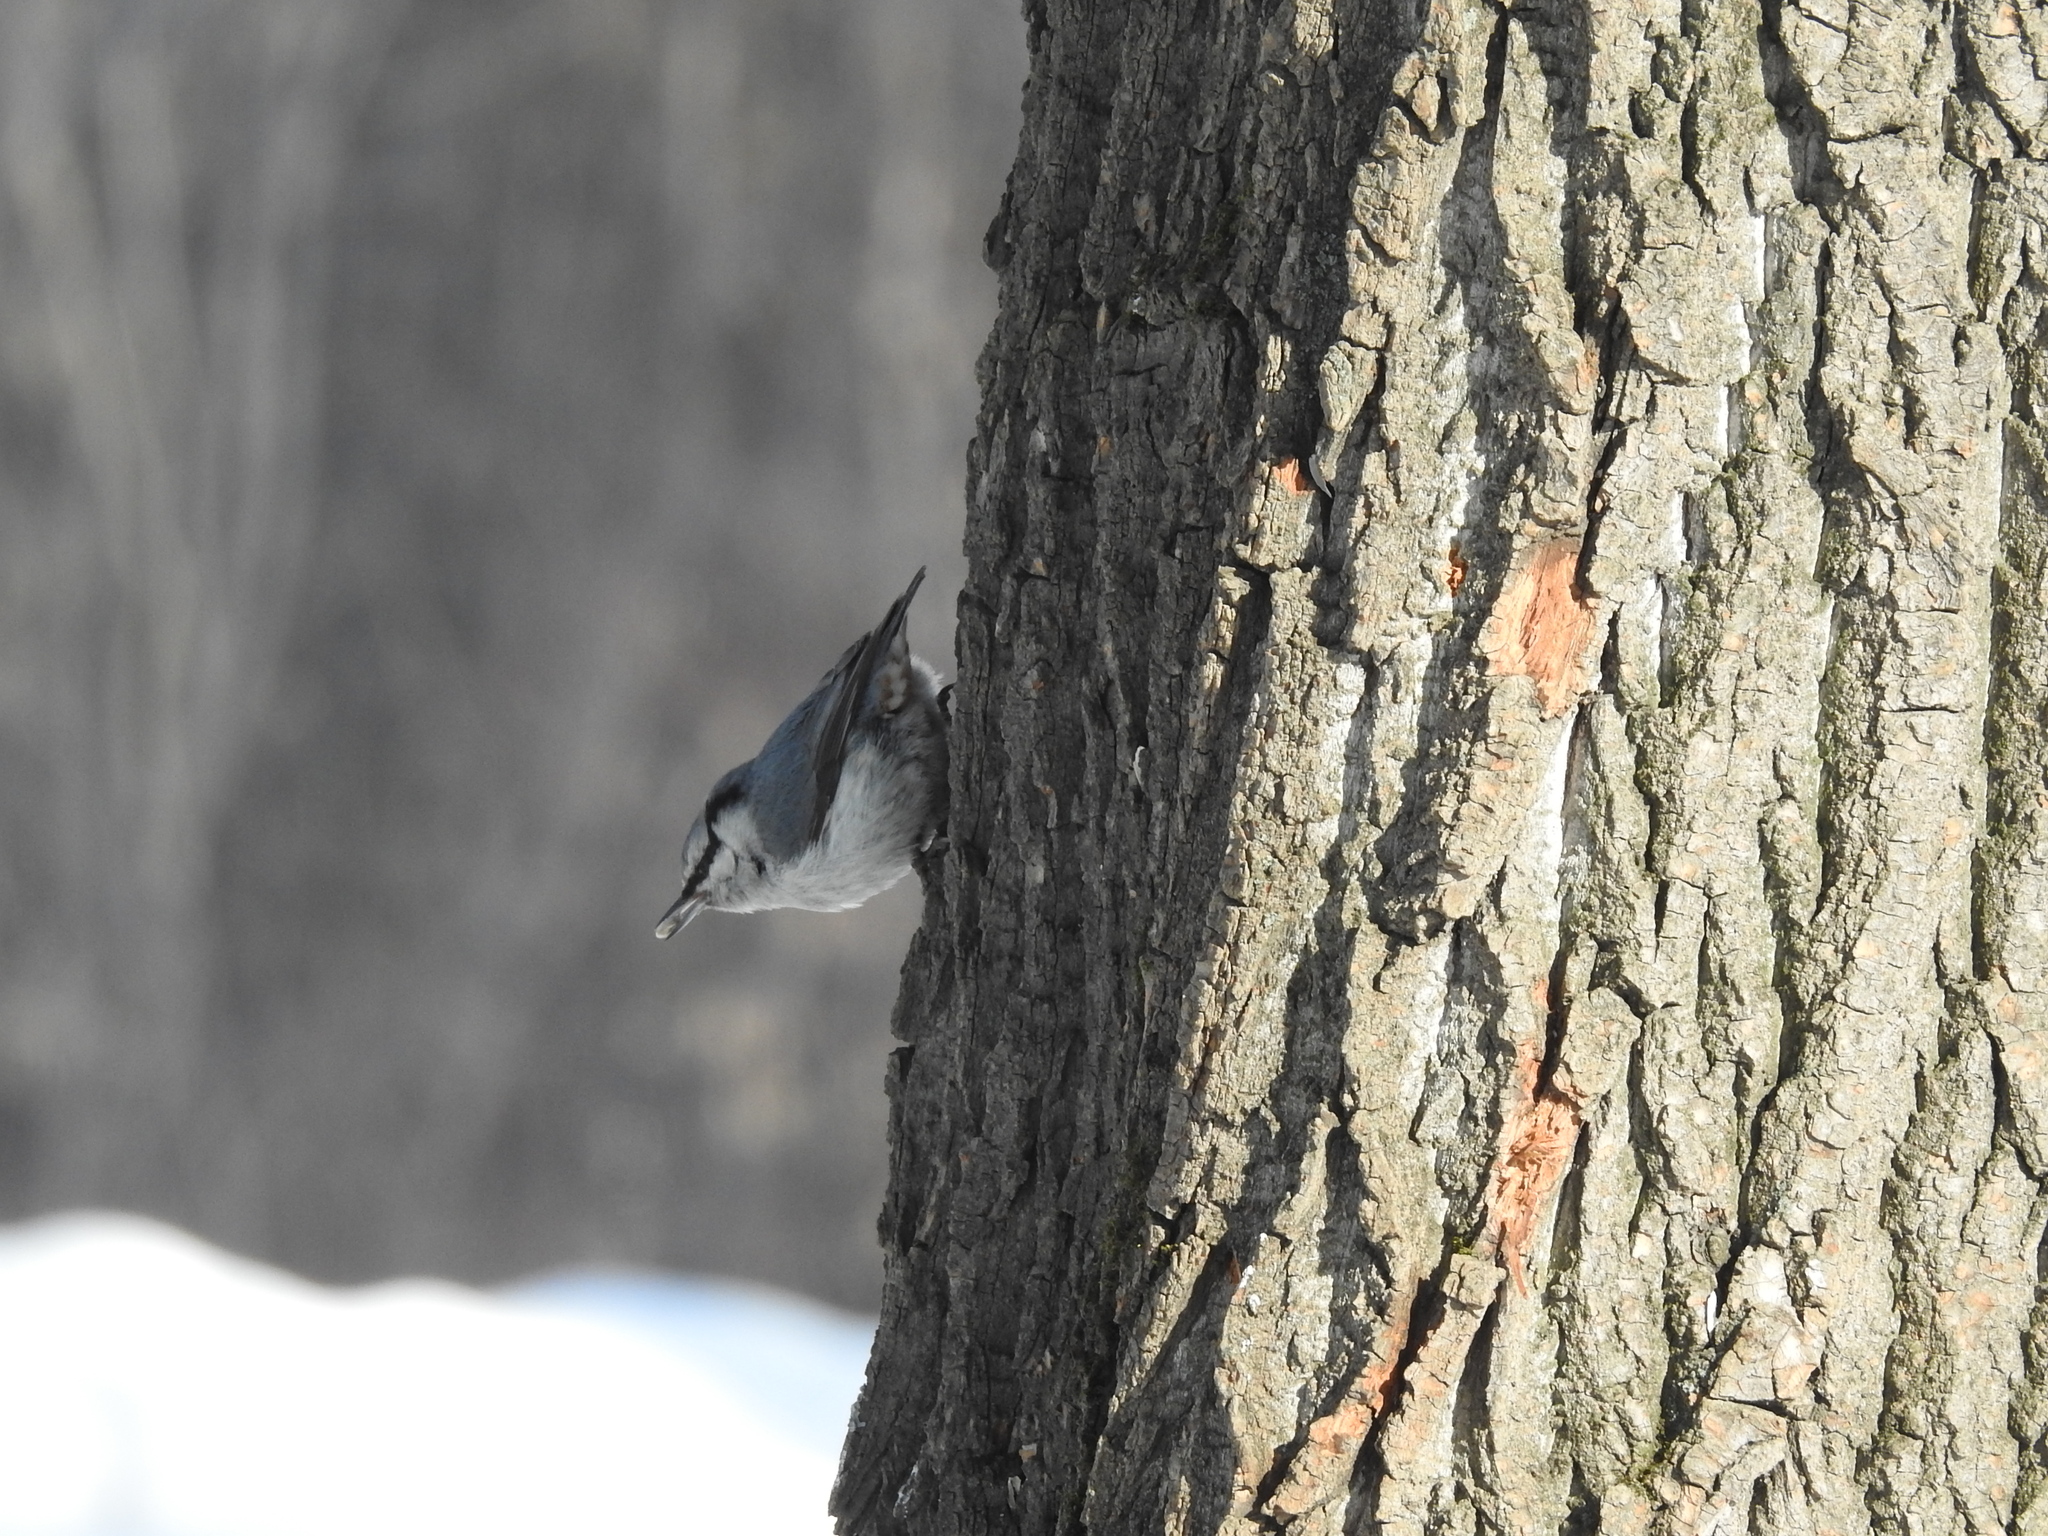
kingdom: Animalia
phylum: Chordata
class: Aves
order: Passeriformes
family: Sittidae
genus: Sitta
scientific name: Sitta europaea
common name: Eurasian nuthatch
